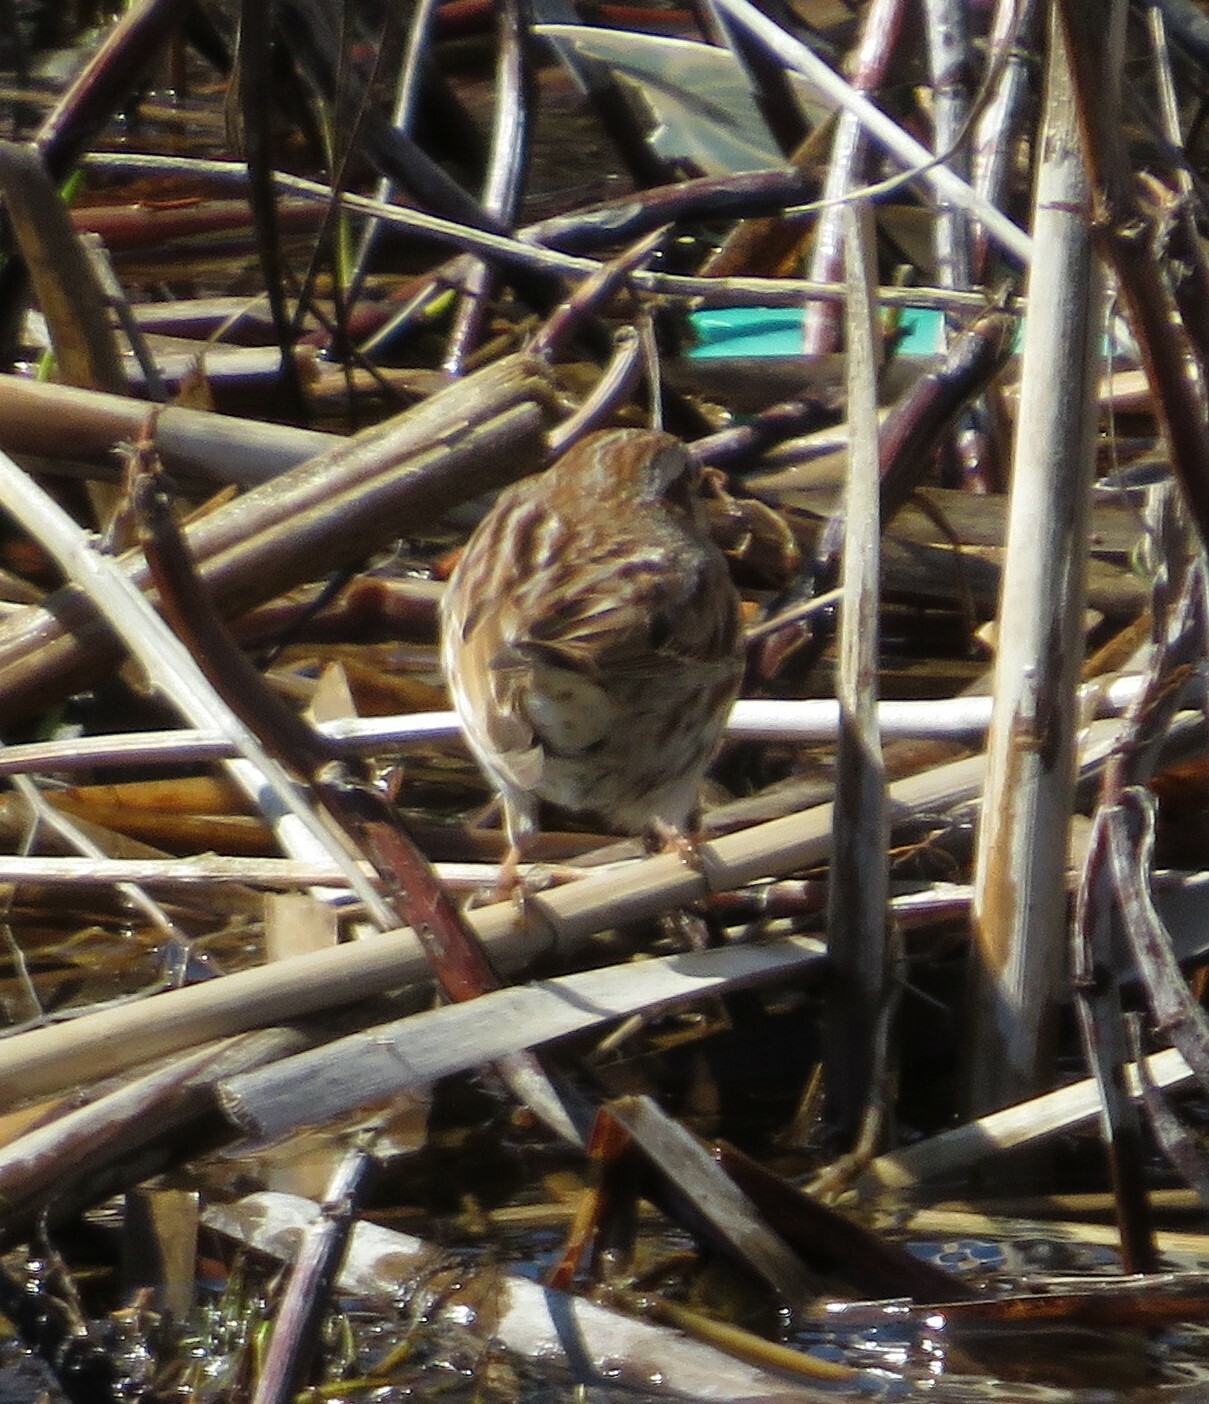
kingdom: Animalia
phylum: Chordata
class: Aves
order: Passeriformes
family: Passerellidae
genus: Melospiza
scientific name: Melospiza melodia
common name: Song sparrow
